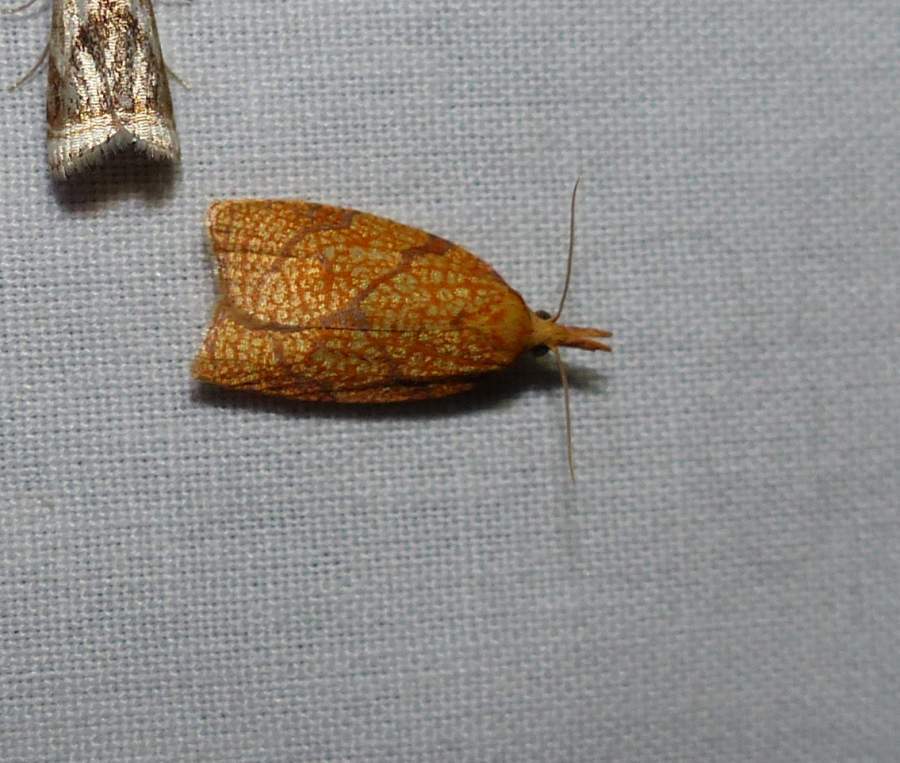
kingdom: Animalia
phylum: Arthropoda
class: Insecta
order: Lepidoptera
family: Tortricidae
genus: Cenopis
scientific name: Cenopis reticulatana
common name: Reticulated fruitworm moth
